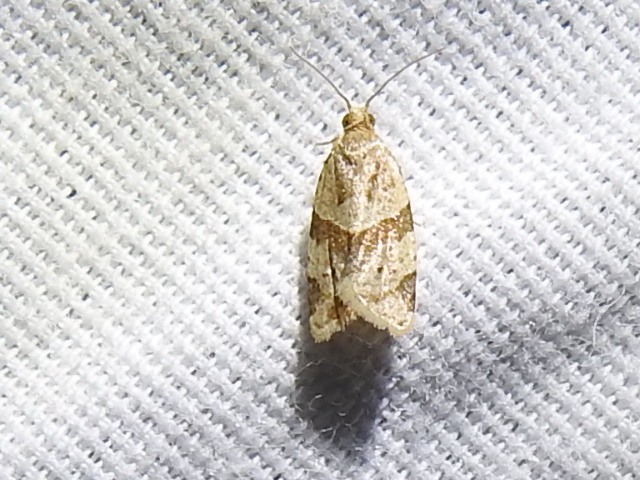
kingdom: Animalia
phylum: Arthropoda
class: Insecta
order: Lepidoptera
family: Tortricidae
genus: Clepsis
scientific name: Clepsis peritana
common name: Garden tortrix
